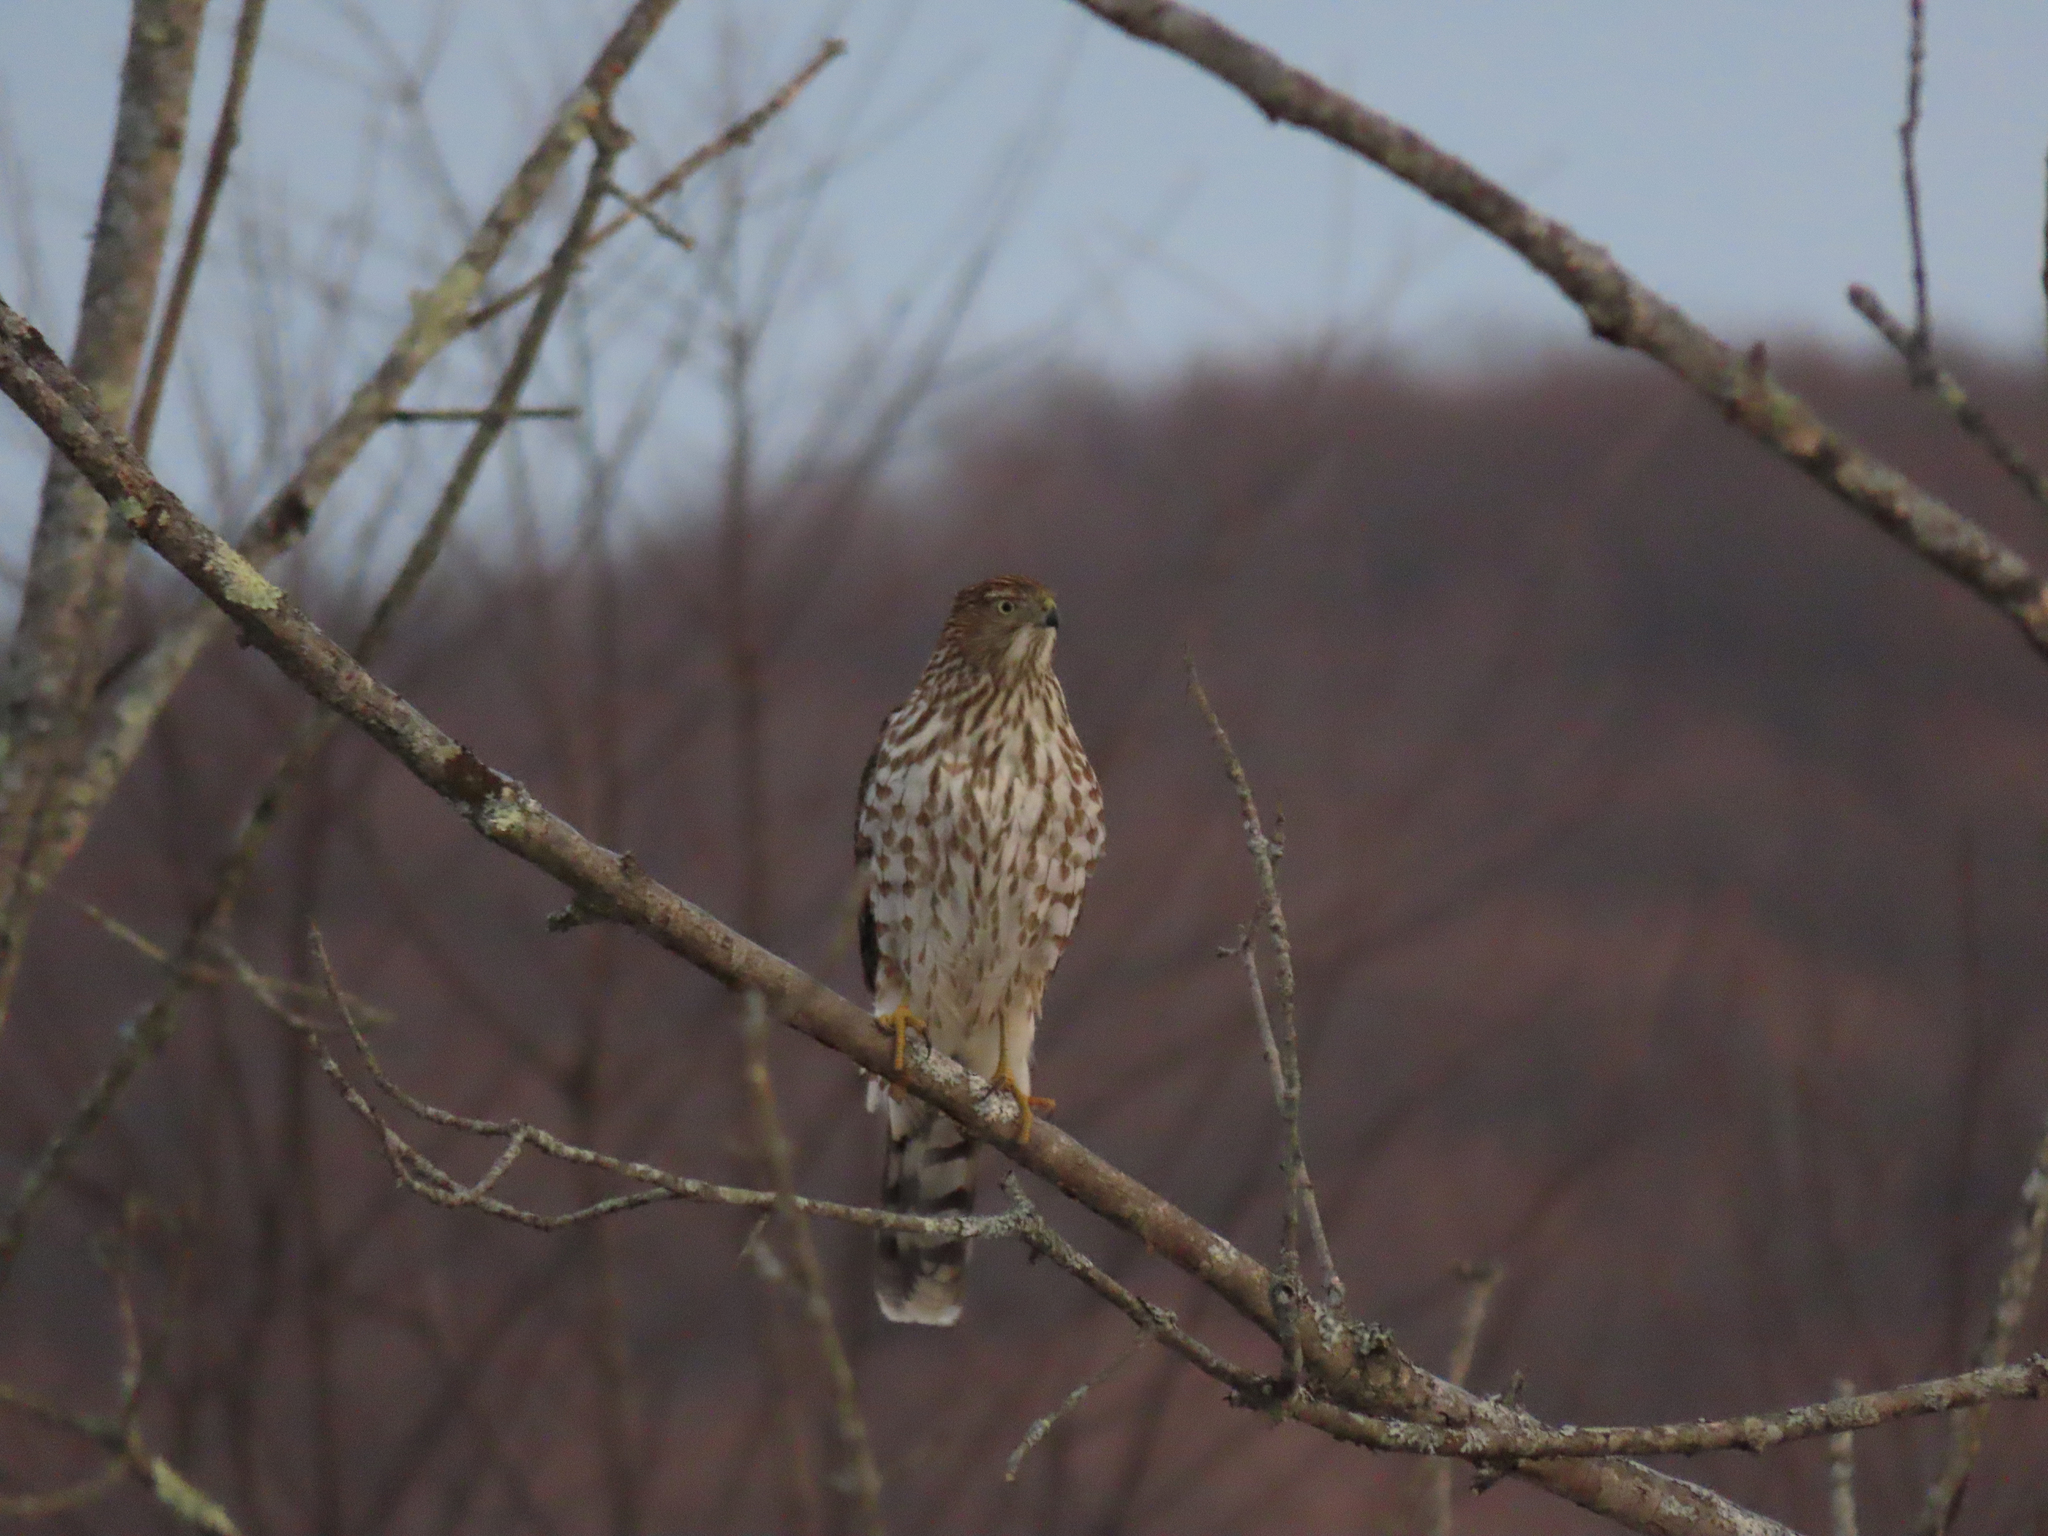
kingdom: Animalia
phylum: Chordata
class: Aves
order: Accipitriformes
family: Accipitridae
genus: Accipiter
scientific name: Accipiter cooperii
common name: Cooper's hawk
